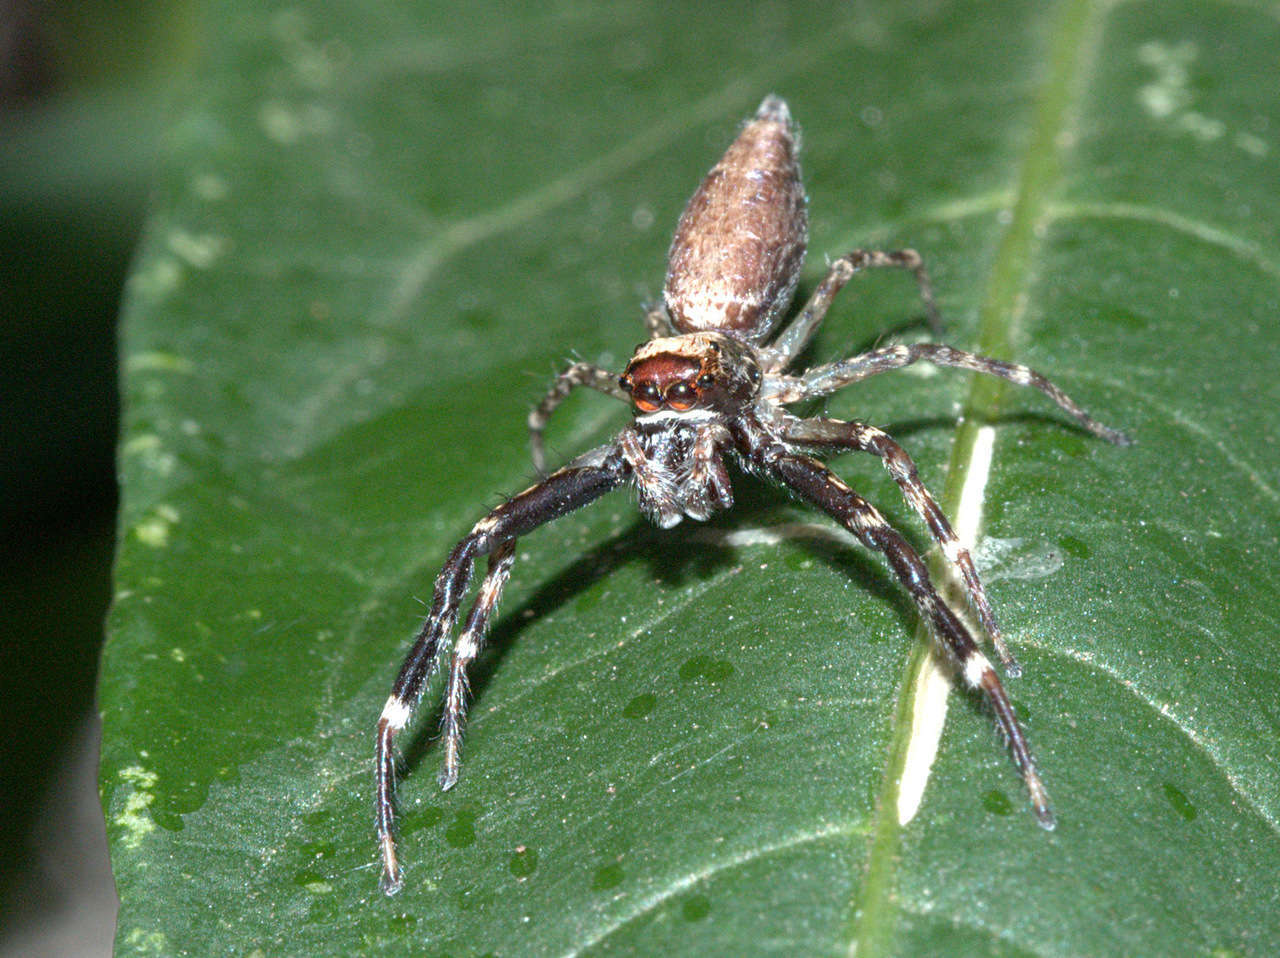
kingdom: Animalia
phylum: Arthropoda
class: Arachnida
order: Araneae
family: Salticidae
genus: Helpis
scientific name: Helpis minitabunda
